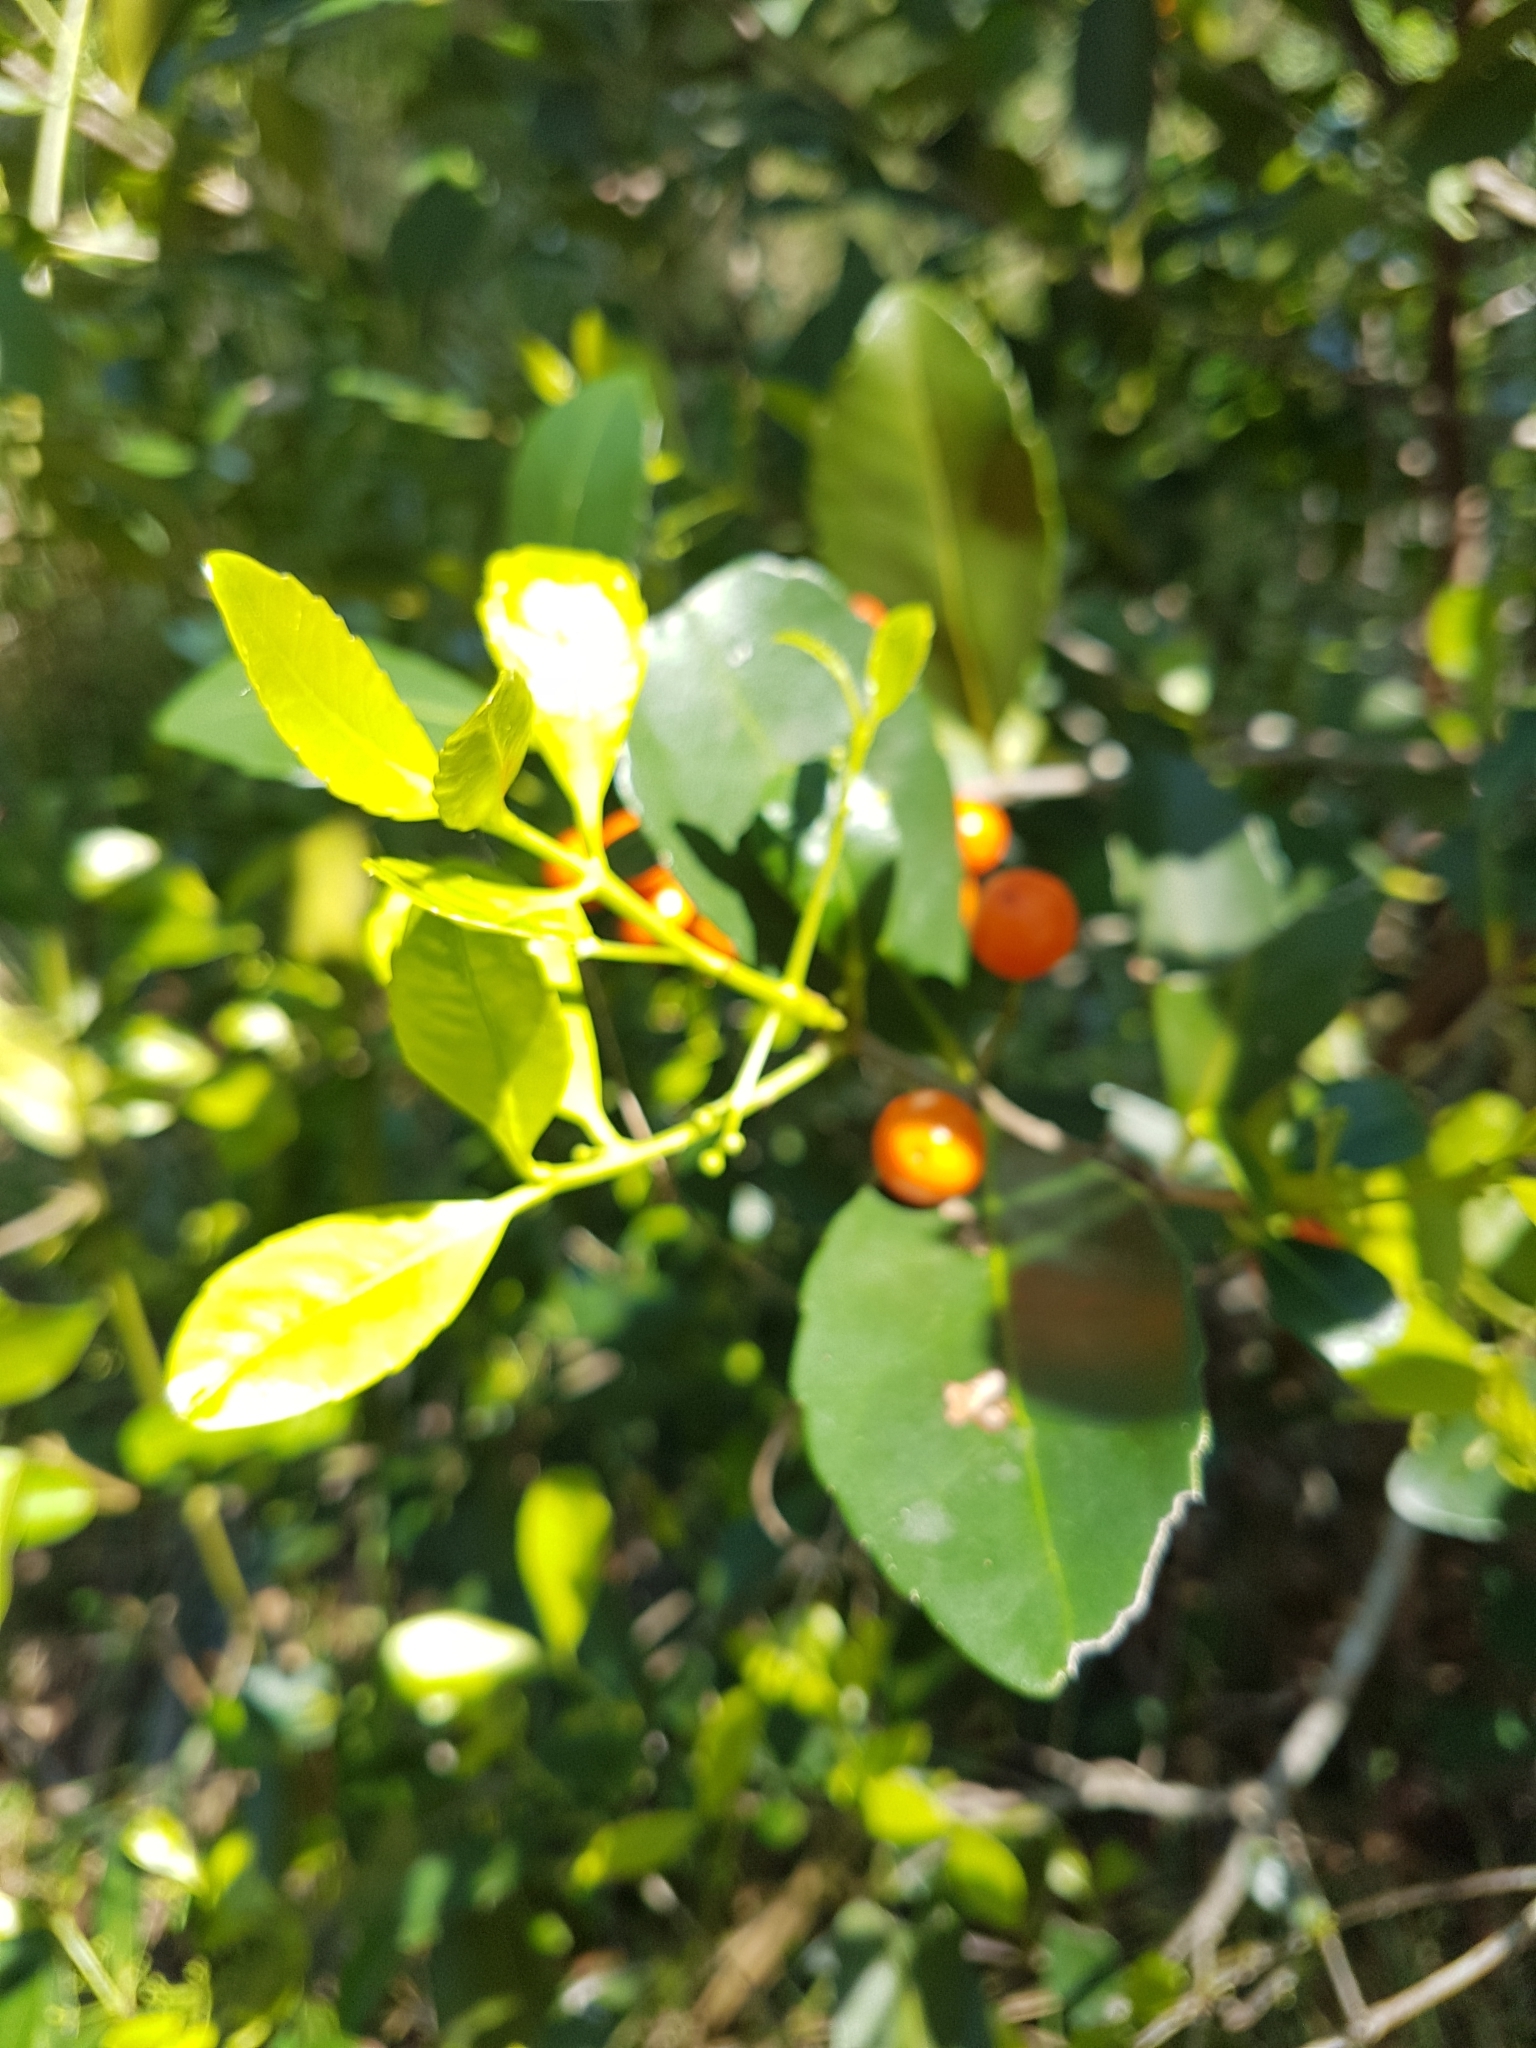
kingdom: Plantae
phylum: Tracheophyta
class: Magnoliopsida
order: Celastrales
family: Celastraceae
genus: Elaeodendron
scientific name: Elaeodendron australe
